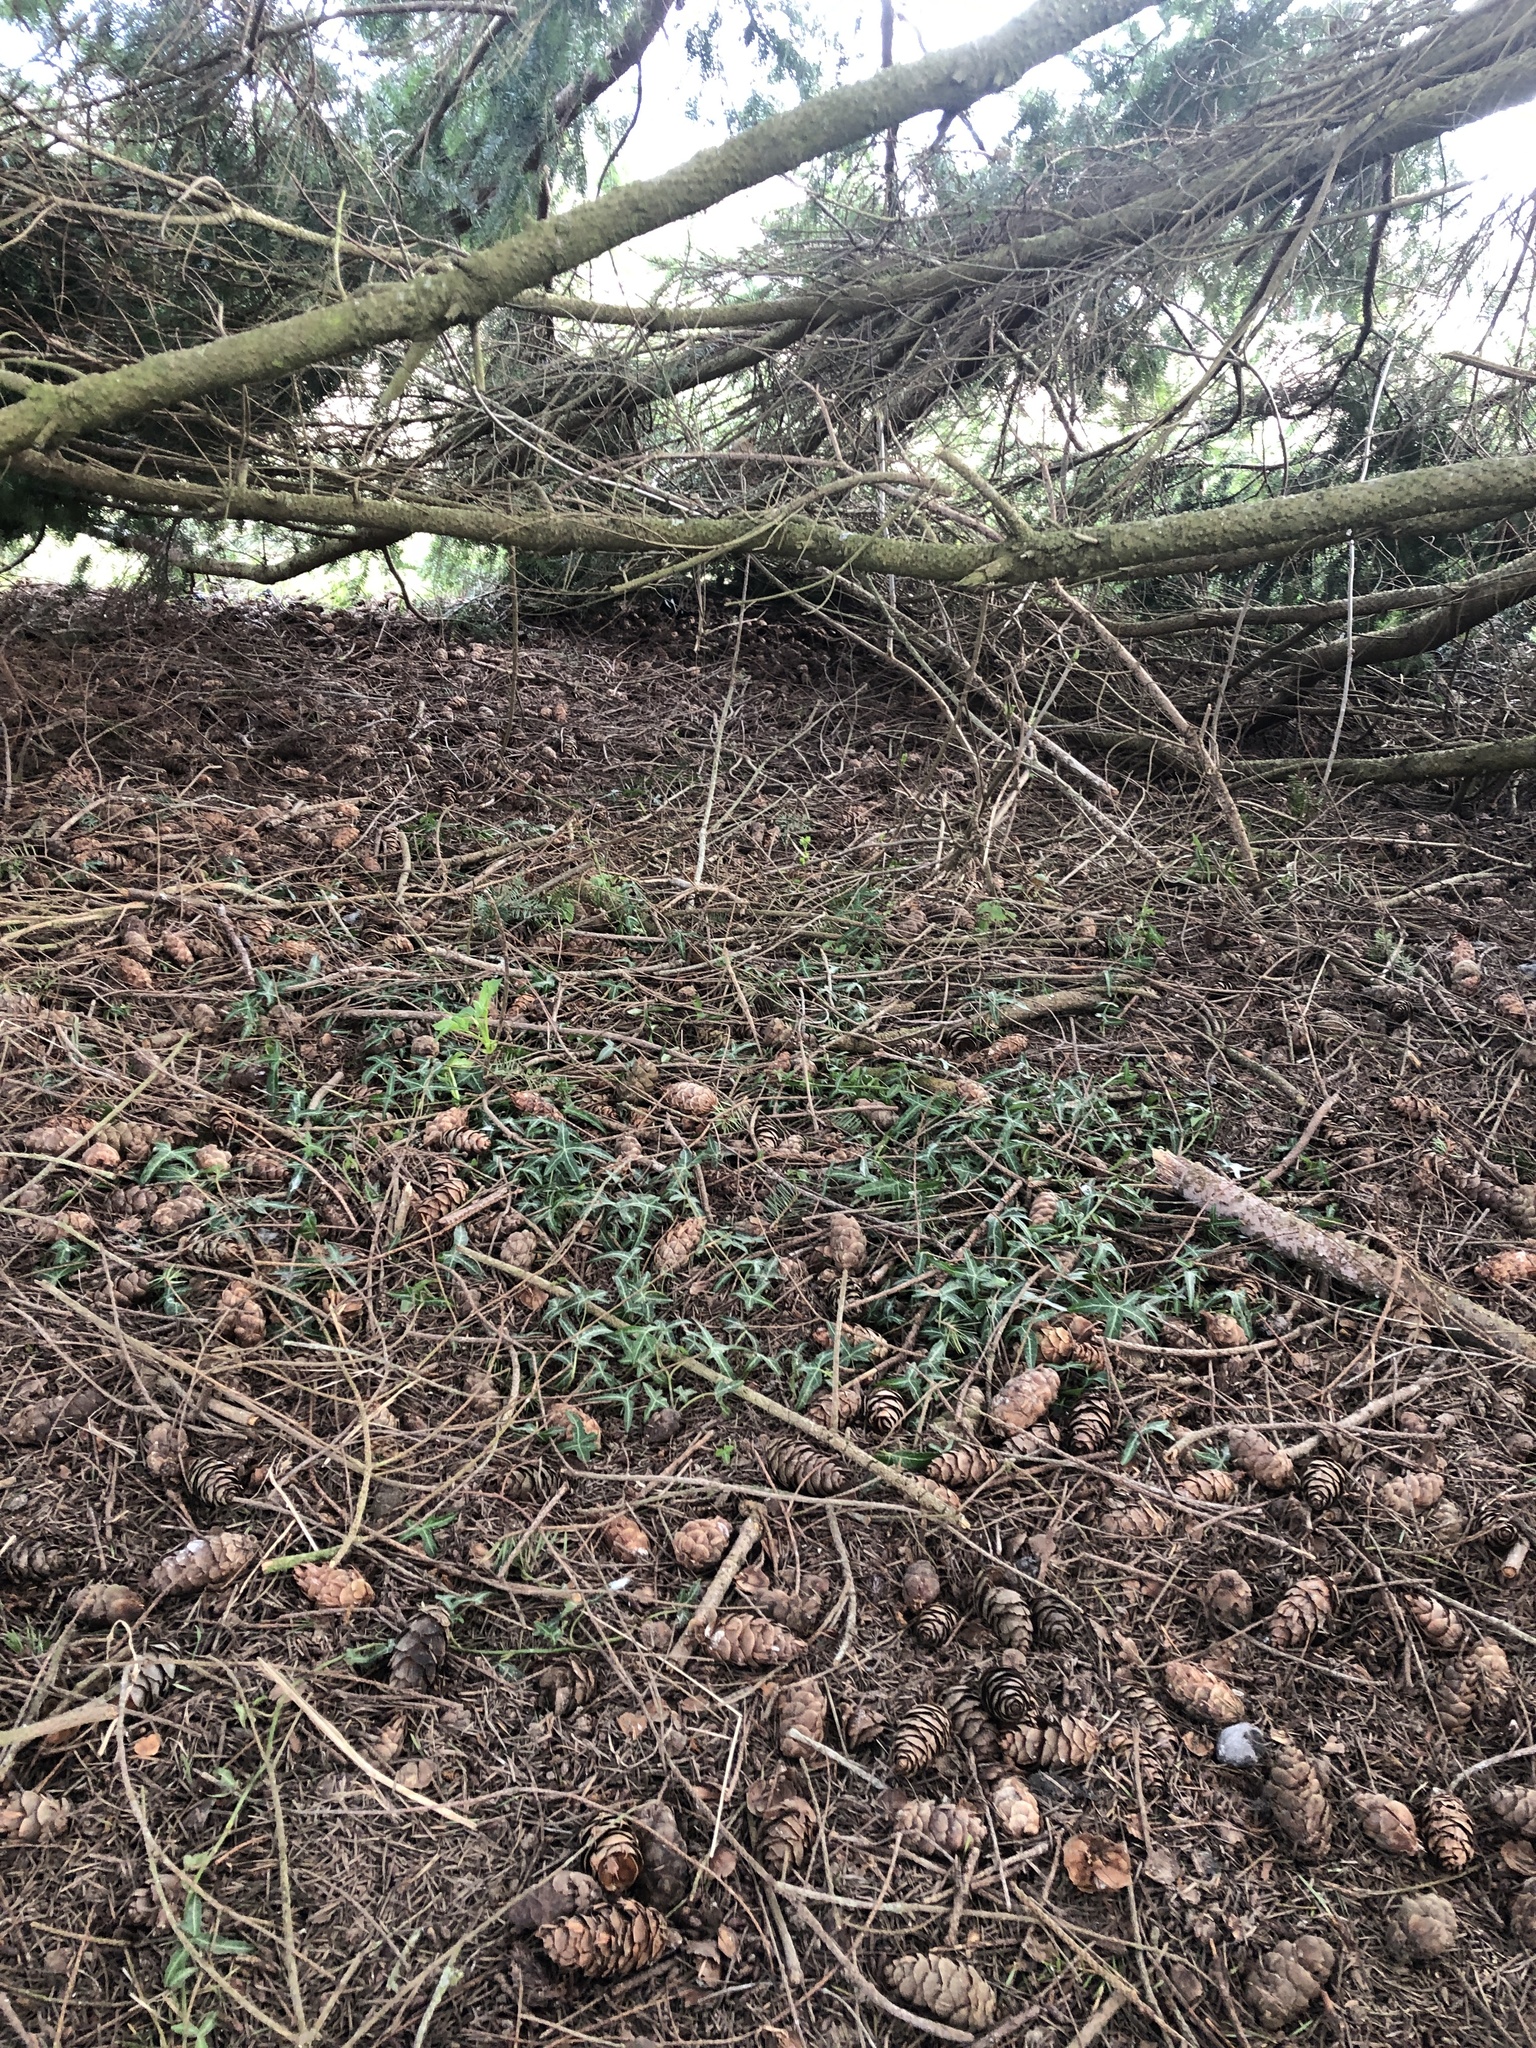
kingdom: Plantae
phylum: Tracheophyta
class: Magnoliopsida
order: Apiales
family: Araliaceae
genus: Hedera
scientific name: Hedera helix
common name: Ivy
